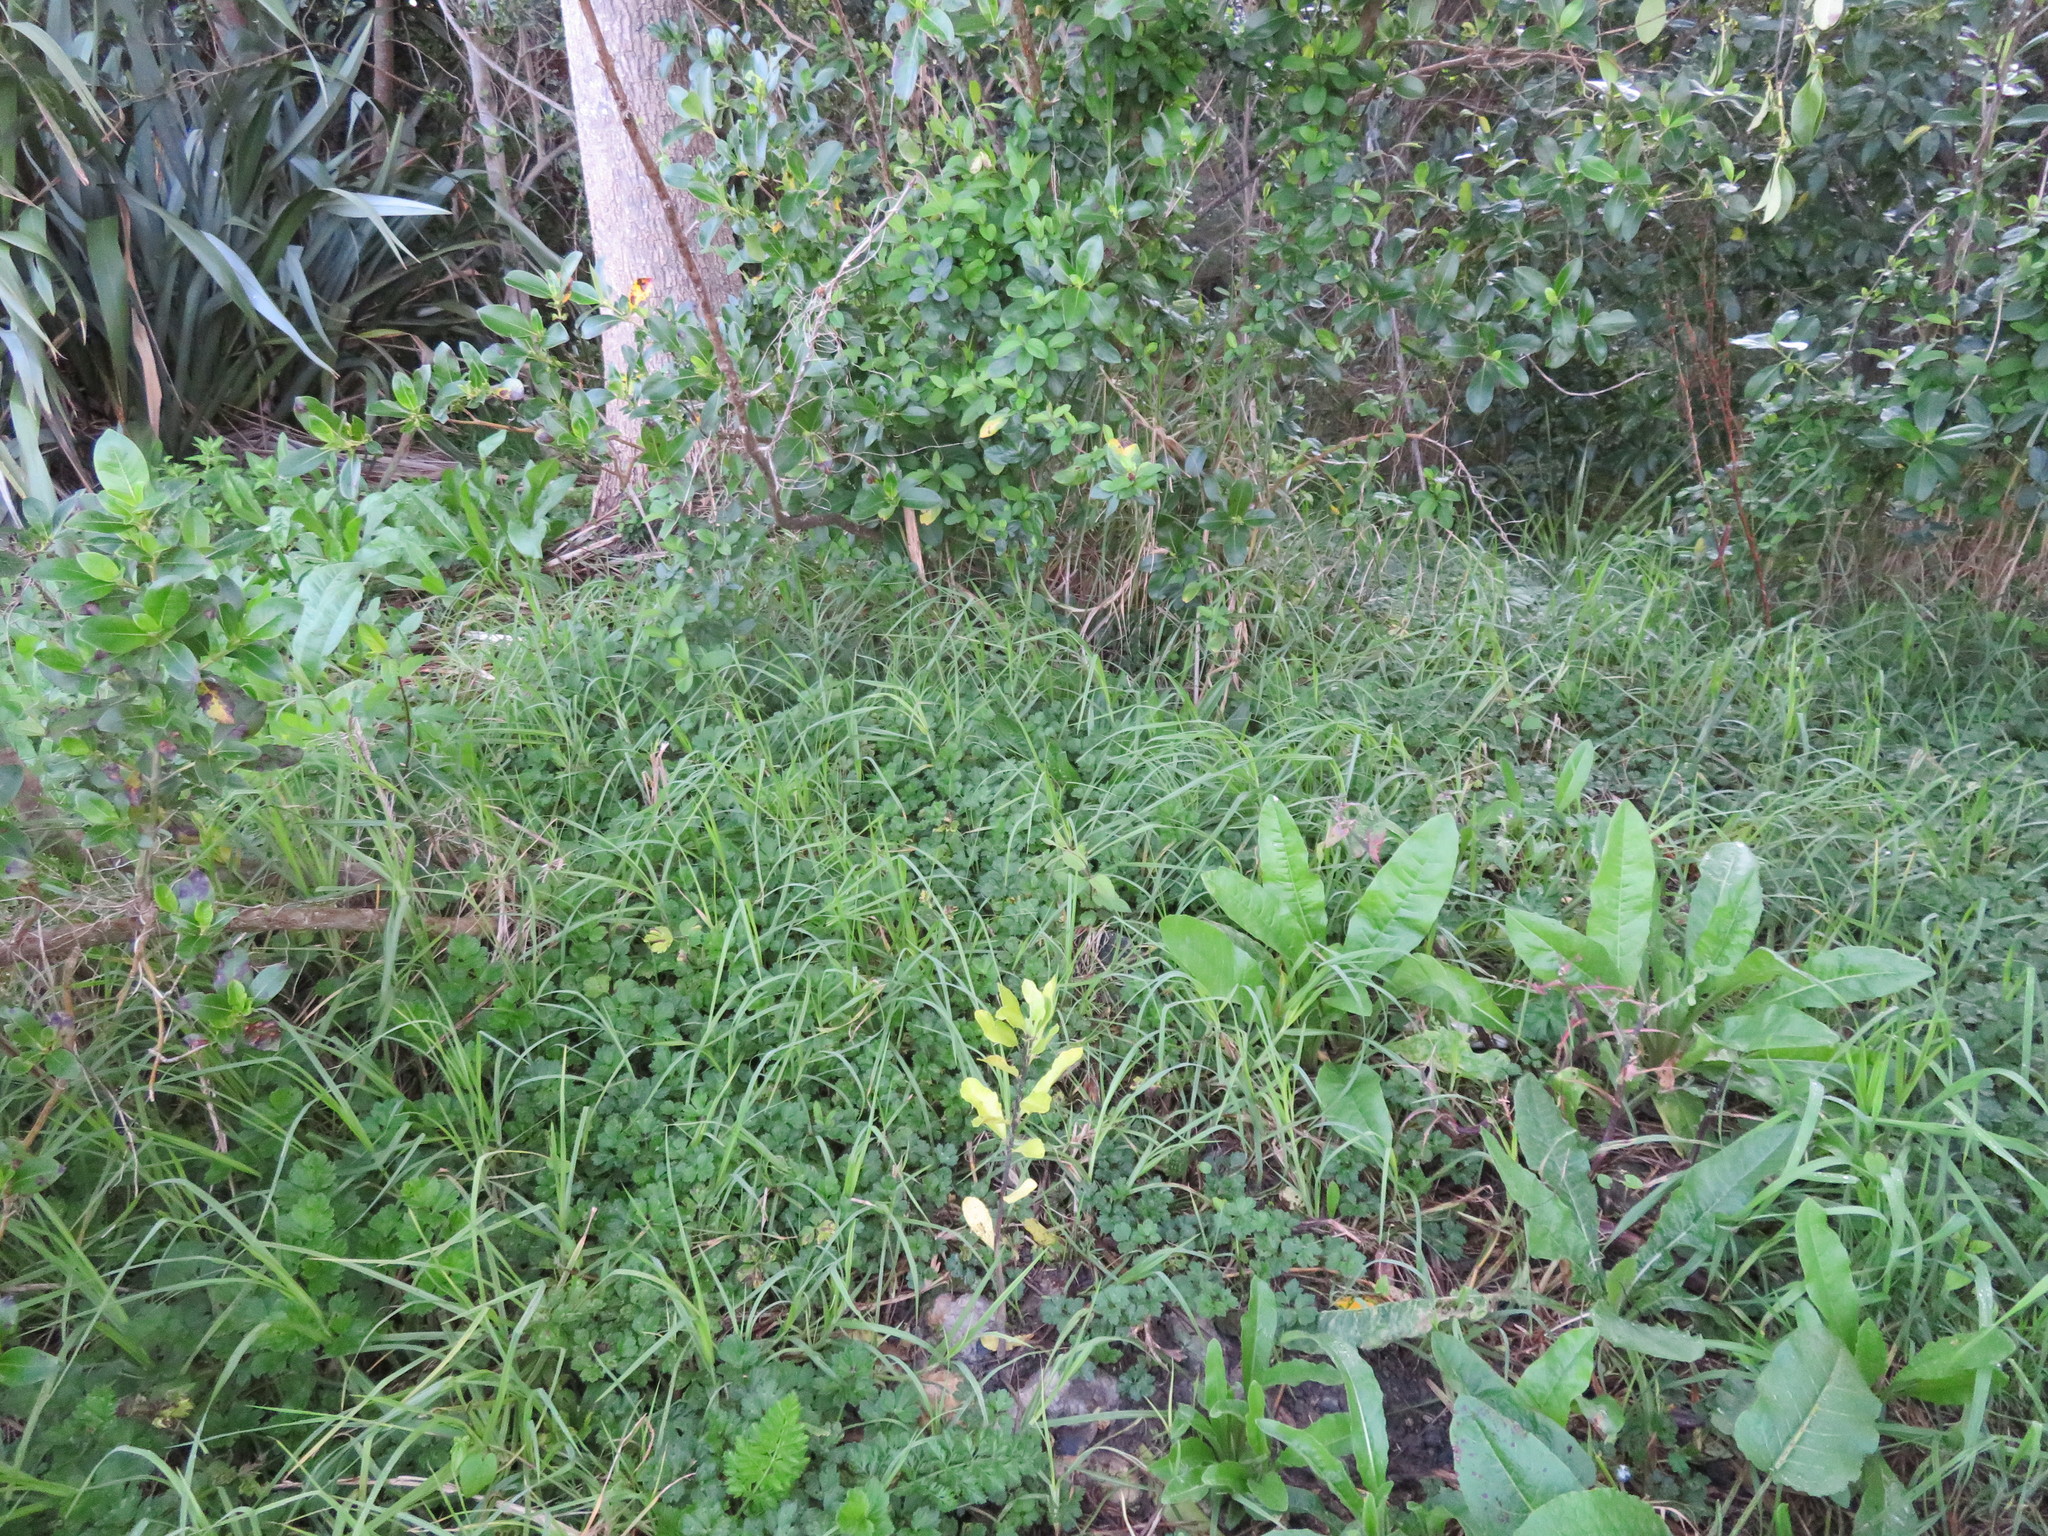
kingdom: Plantae
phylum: Tracheophyta
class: Magnoliopsida
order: Dipsacales
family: Caprifoliaceae
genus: Lonicera
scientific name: Lonicera japonica
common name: Japanese honeysuckle
